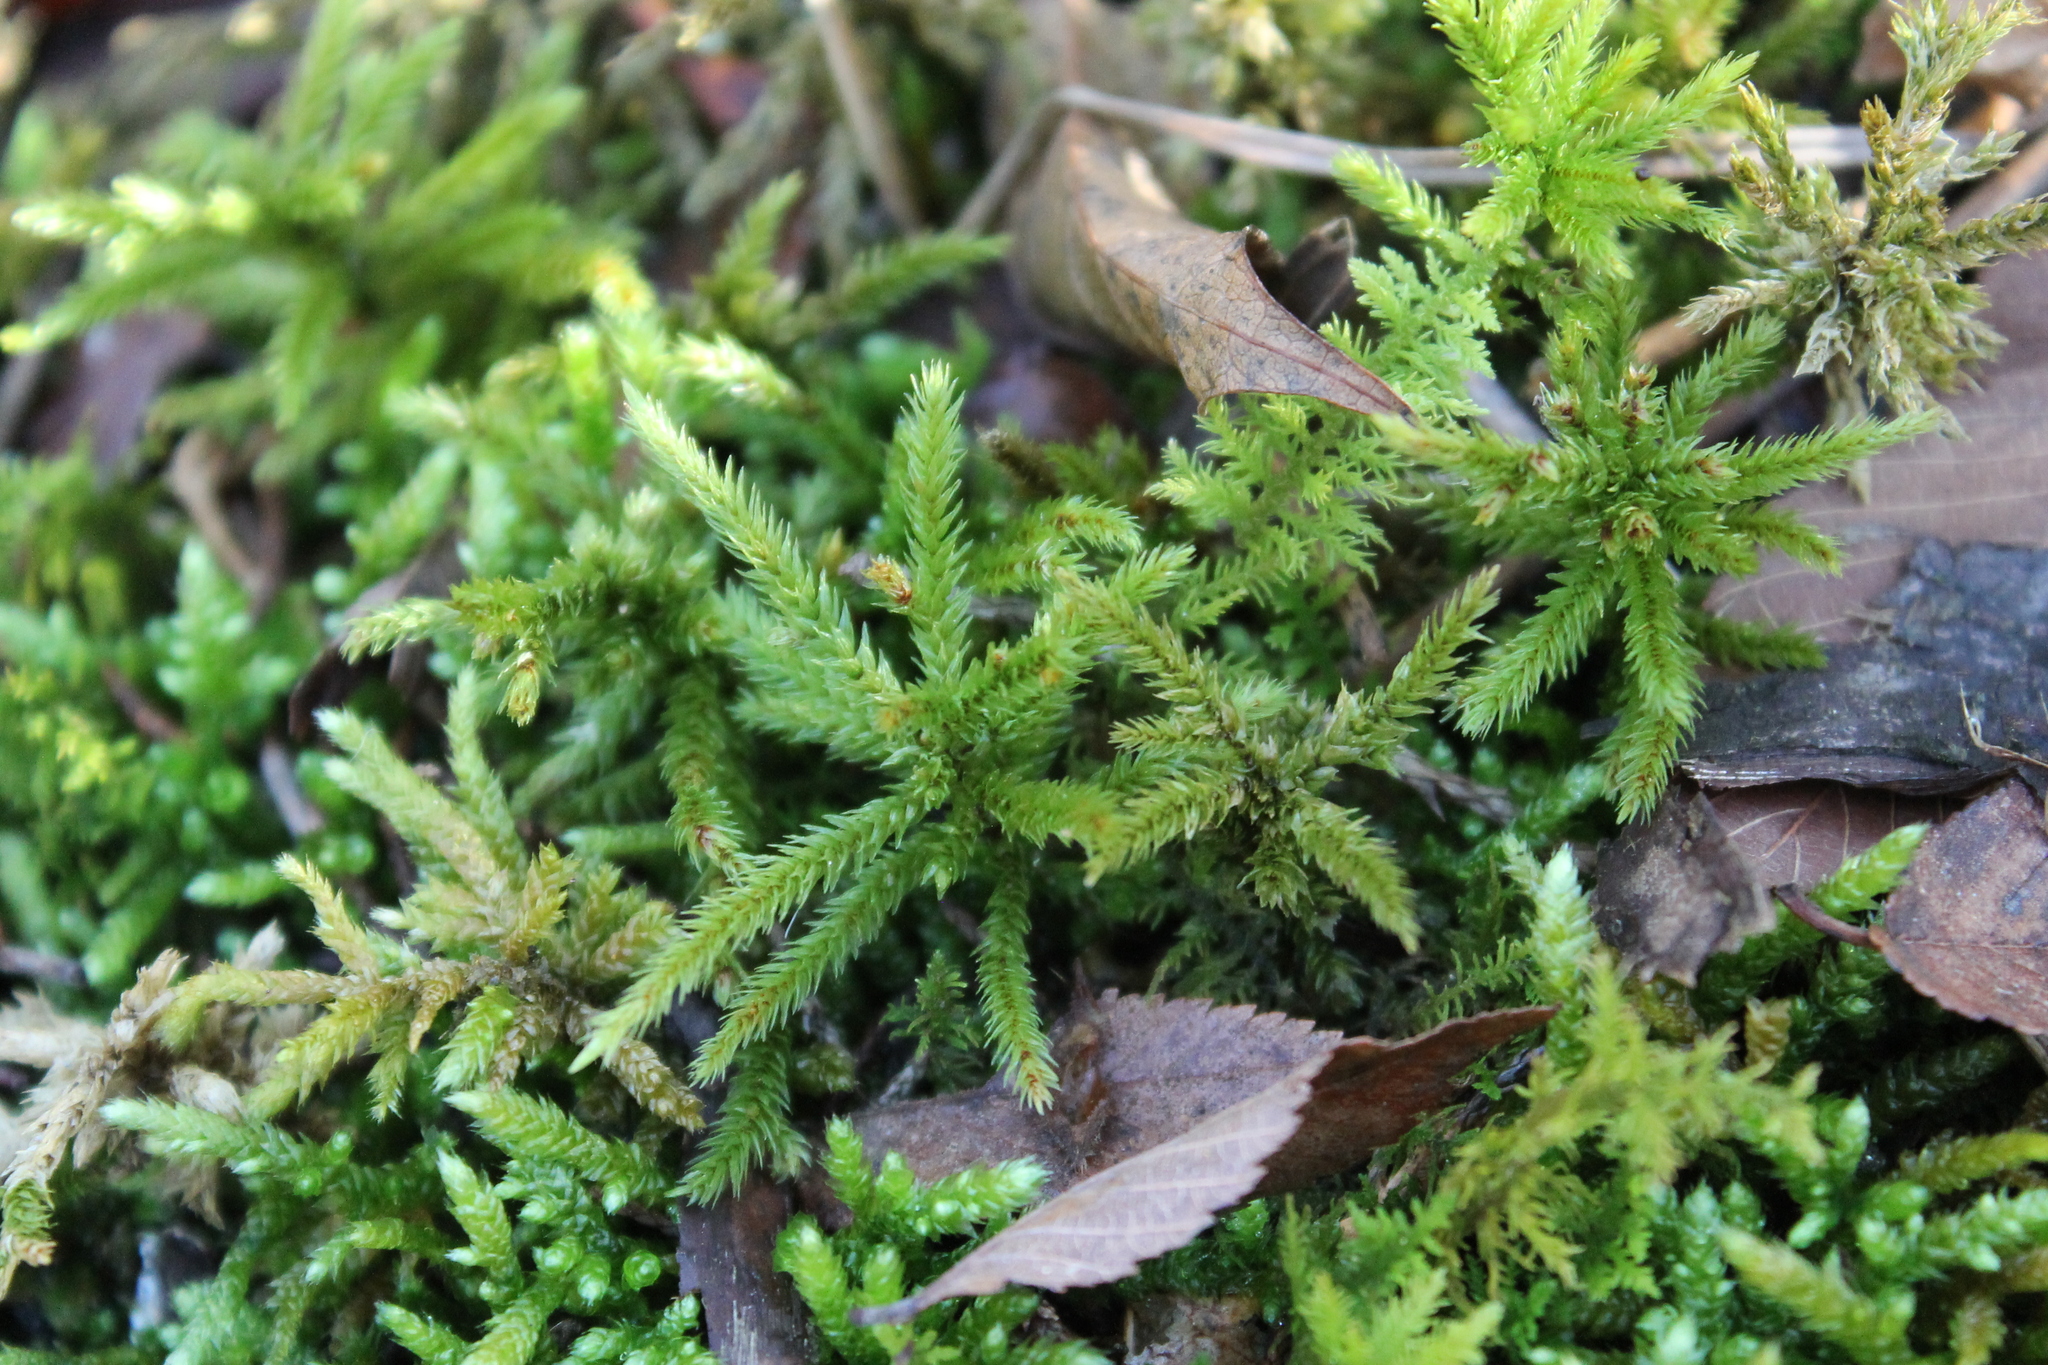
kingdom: Plantae
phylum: Bryophyta
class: Bryopsida
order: Hypnales
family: Climaciaceae
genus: Climacium
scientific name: Climacium americanum
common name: American tree moss
